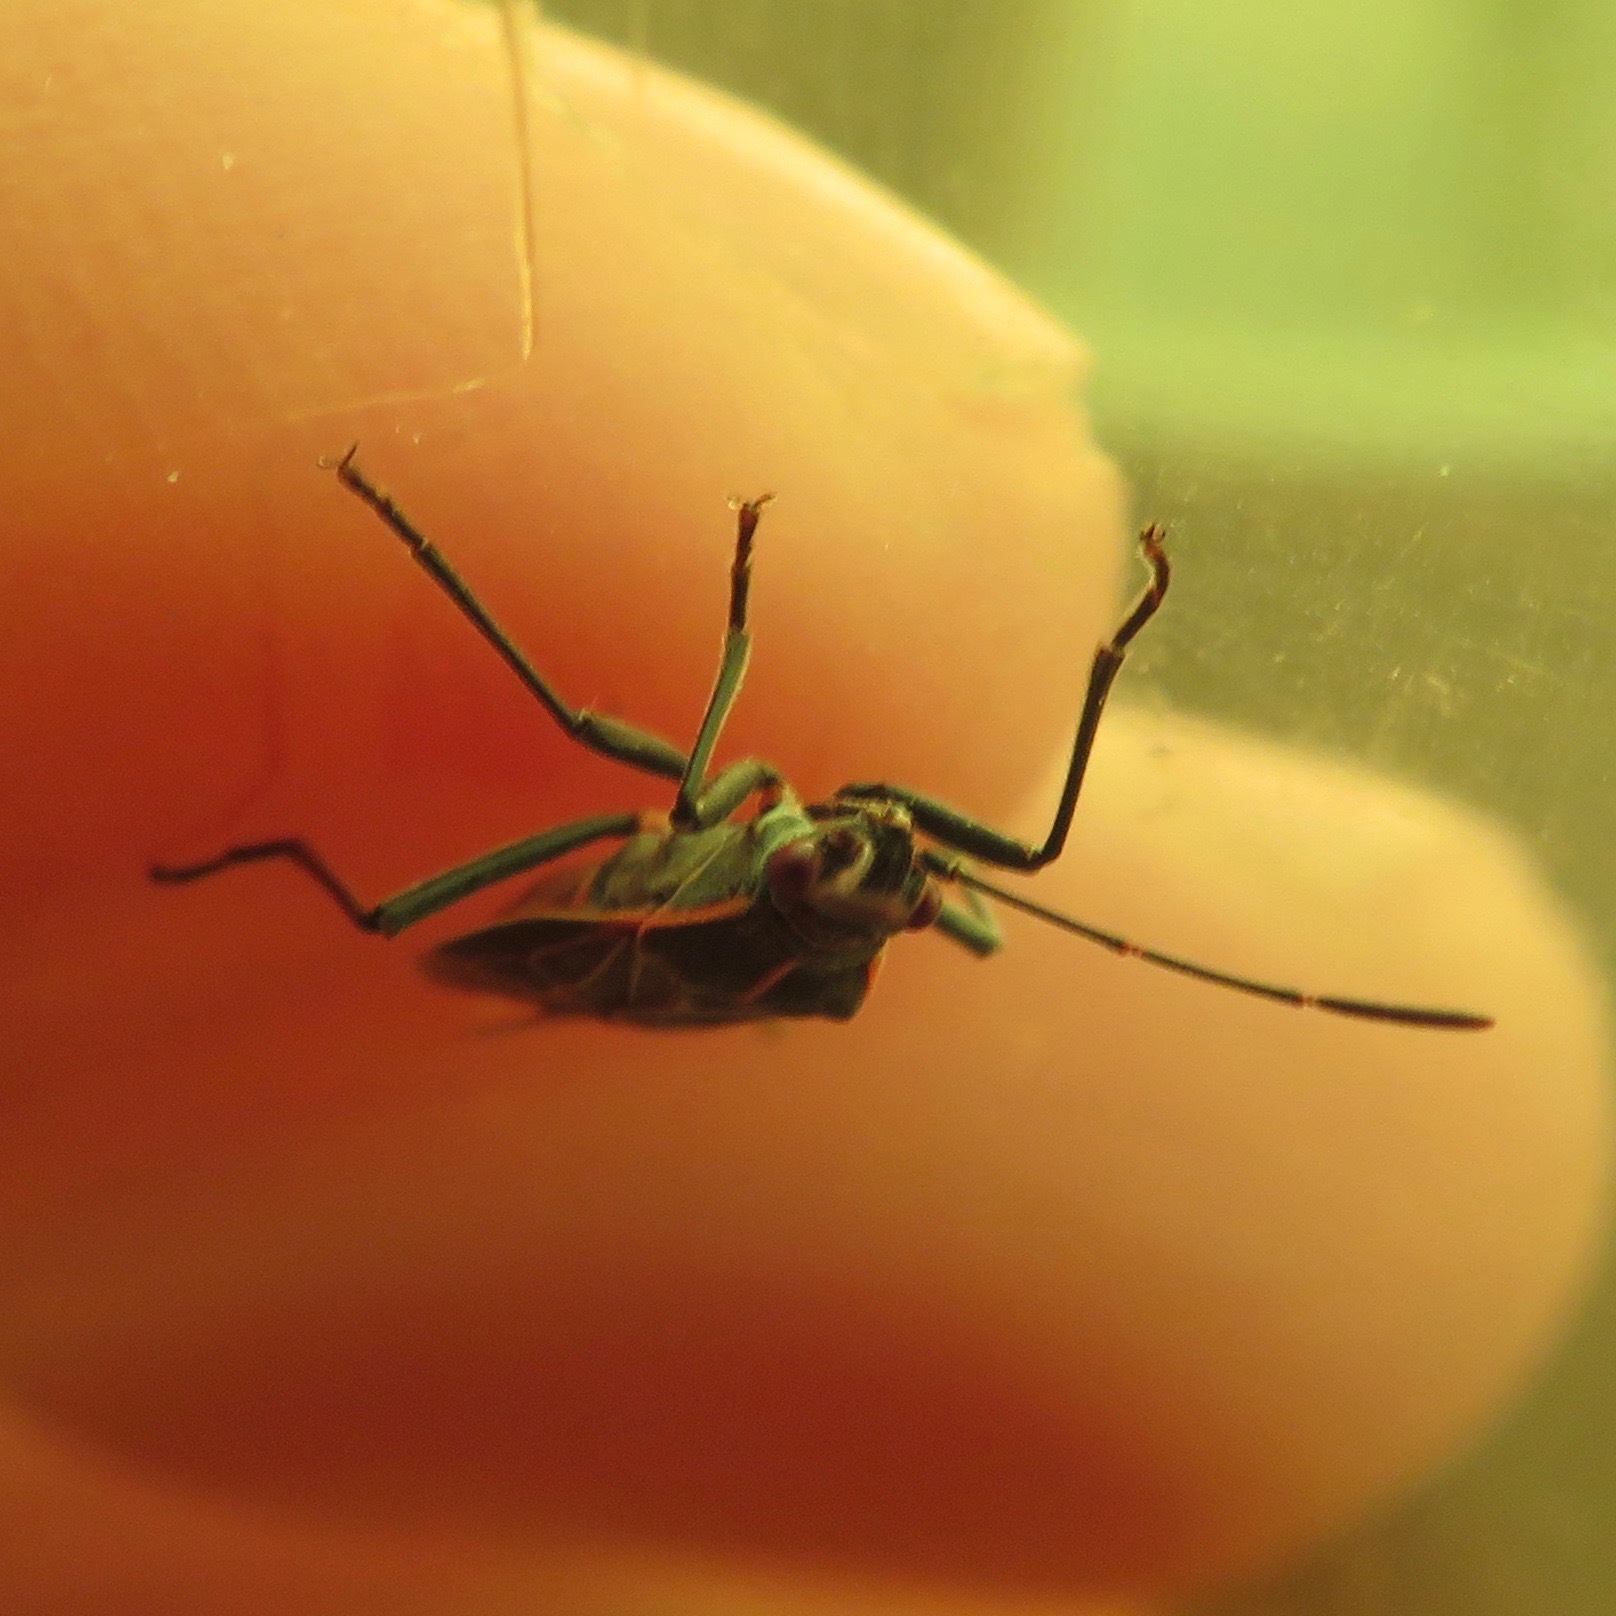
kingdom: Animalia
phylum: Arthropoda
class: Insecta
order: Hemiptera
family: Rhopalidae
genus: Boisea
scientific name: Boisea rubrolineata
